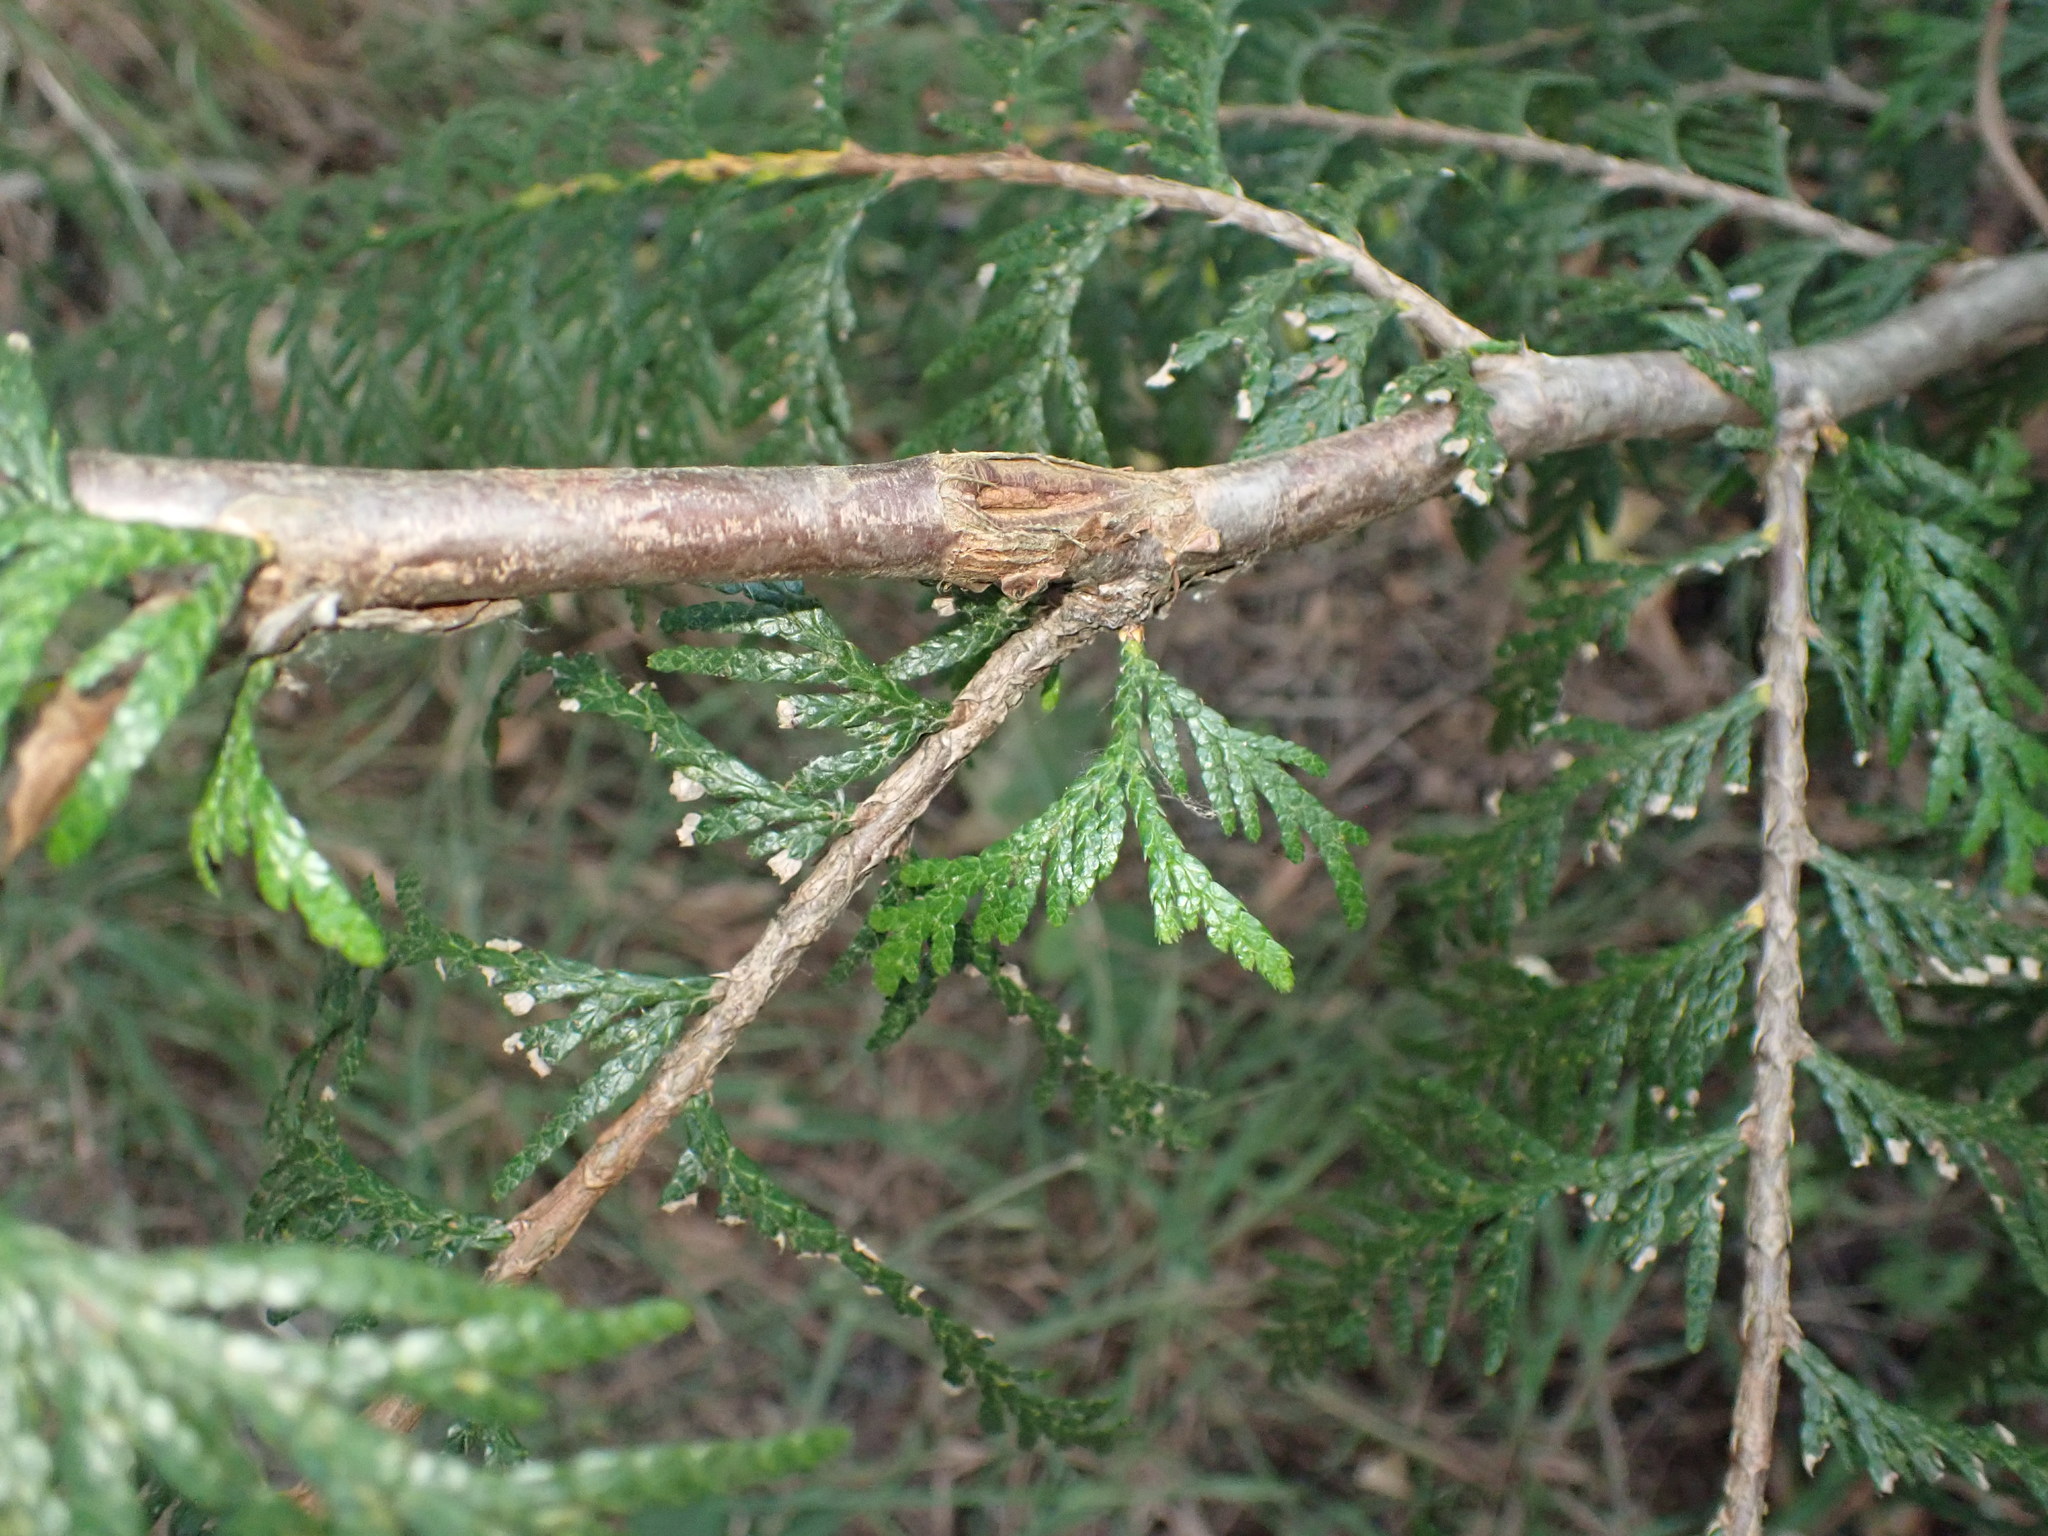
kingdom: Plantae
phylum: Tracheophyta
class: Pinopsida
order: Pinales
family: Cupressaceae
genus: Thuja
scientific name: Thuja plicata
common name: Western red-cedar
